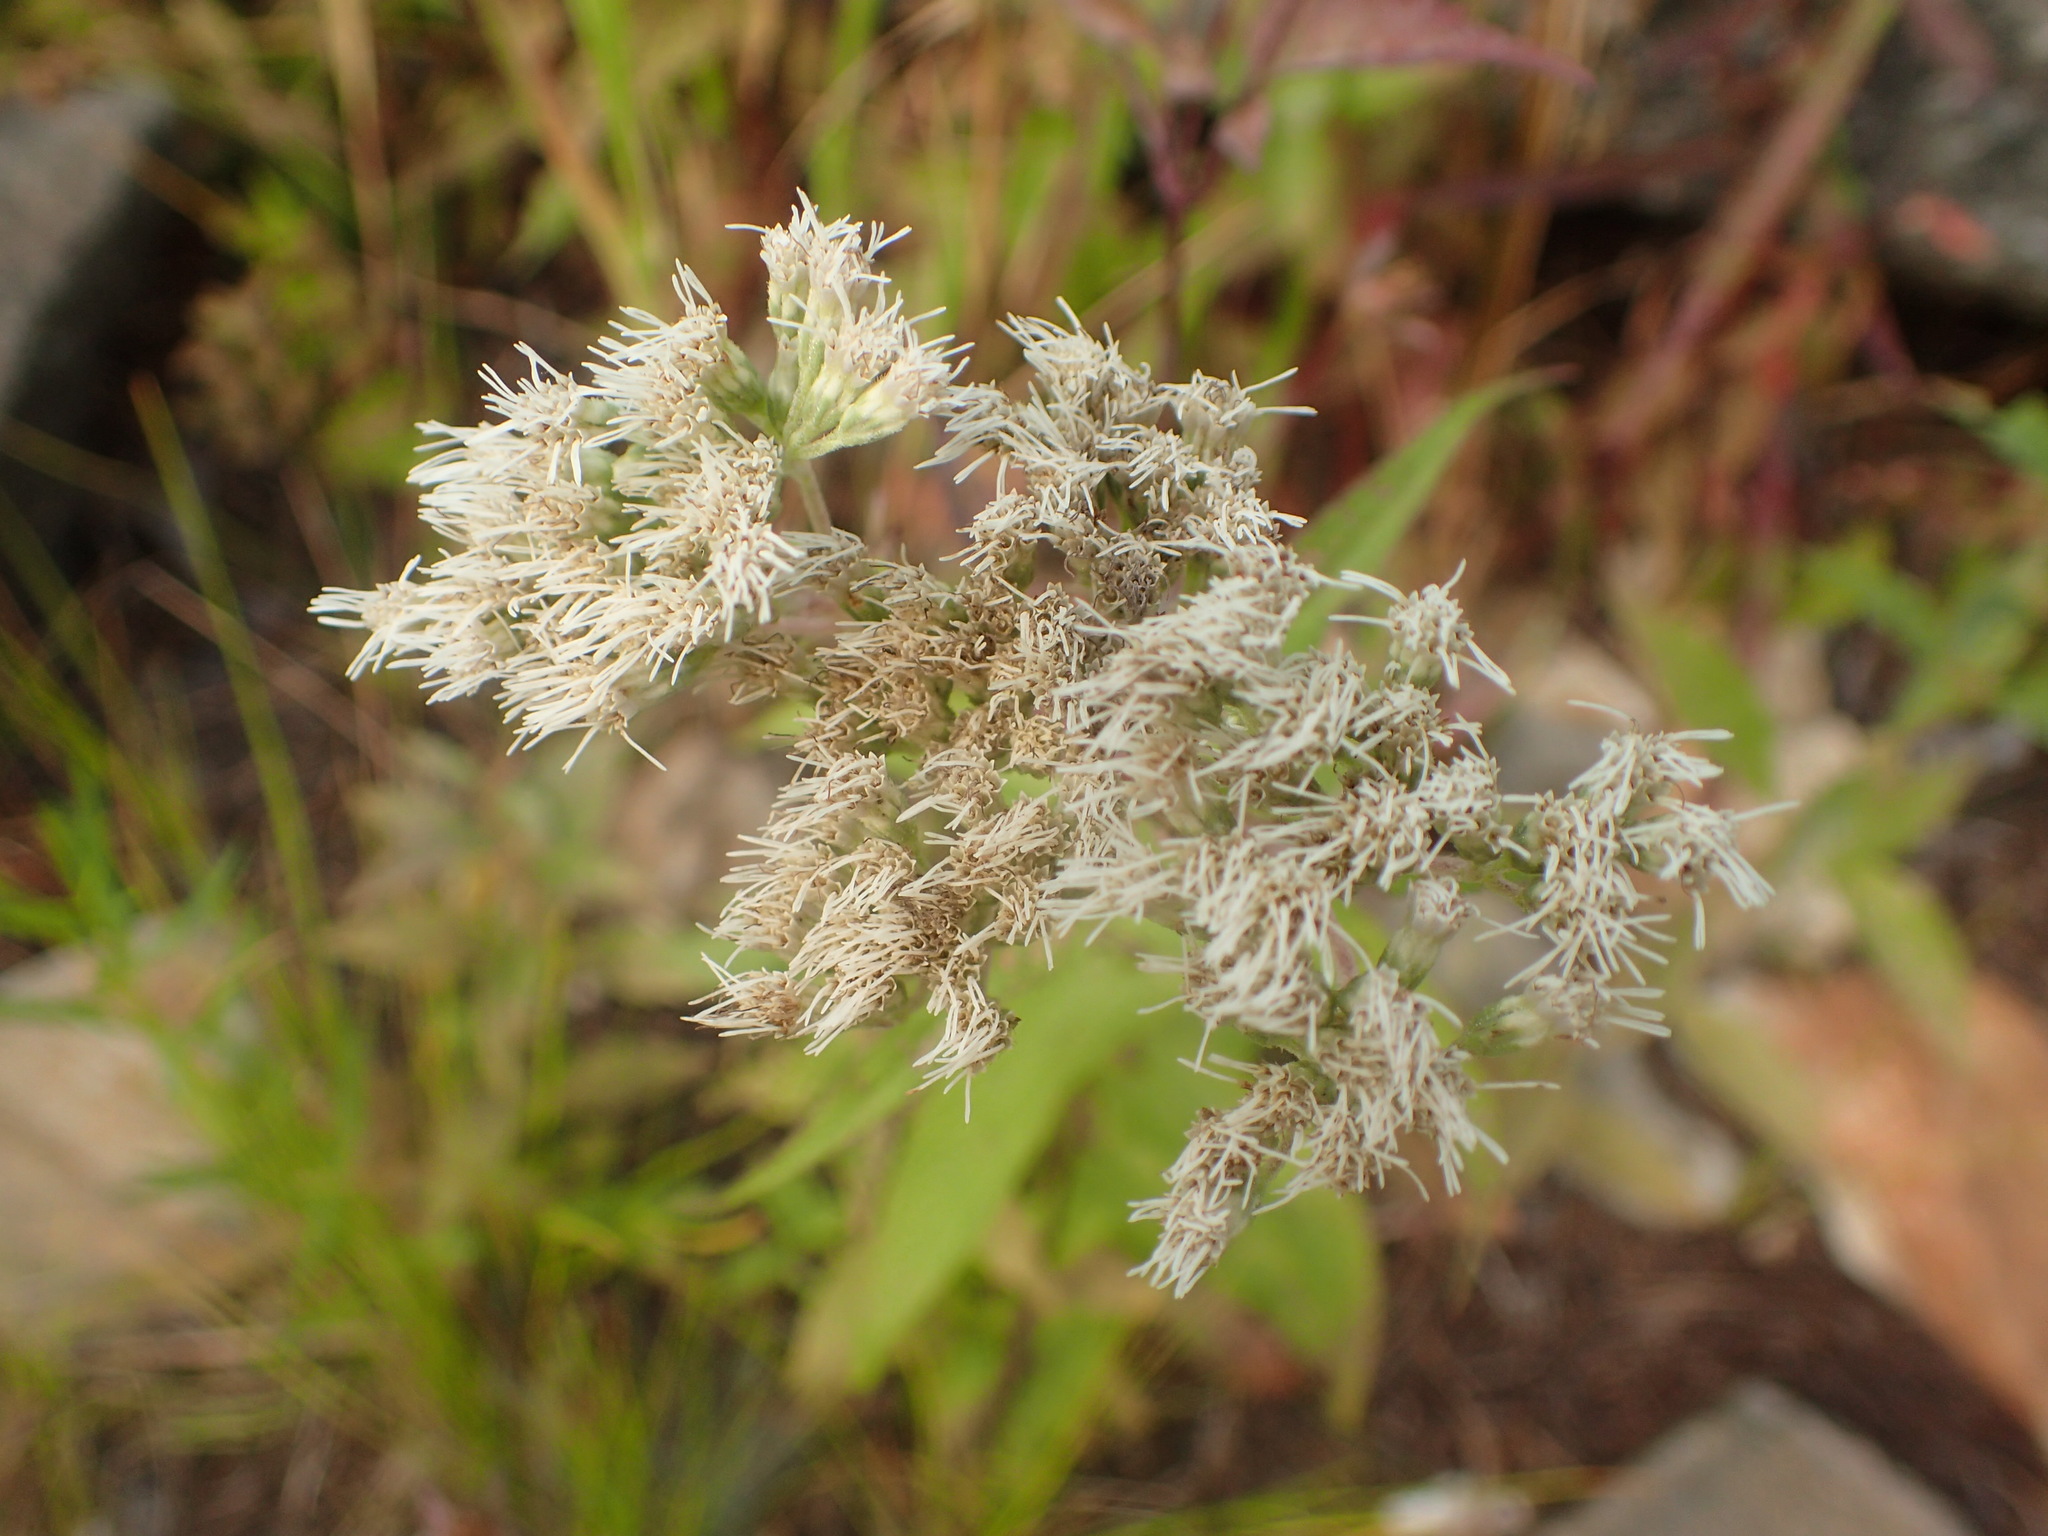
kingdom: Plantae
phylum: Tracheophyta
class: Magnoliopsida
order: Asterales
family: Asteraceae
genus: Eupatorium
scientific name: Eupatorium perfoliatum
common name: Boneset
